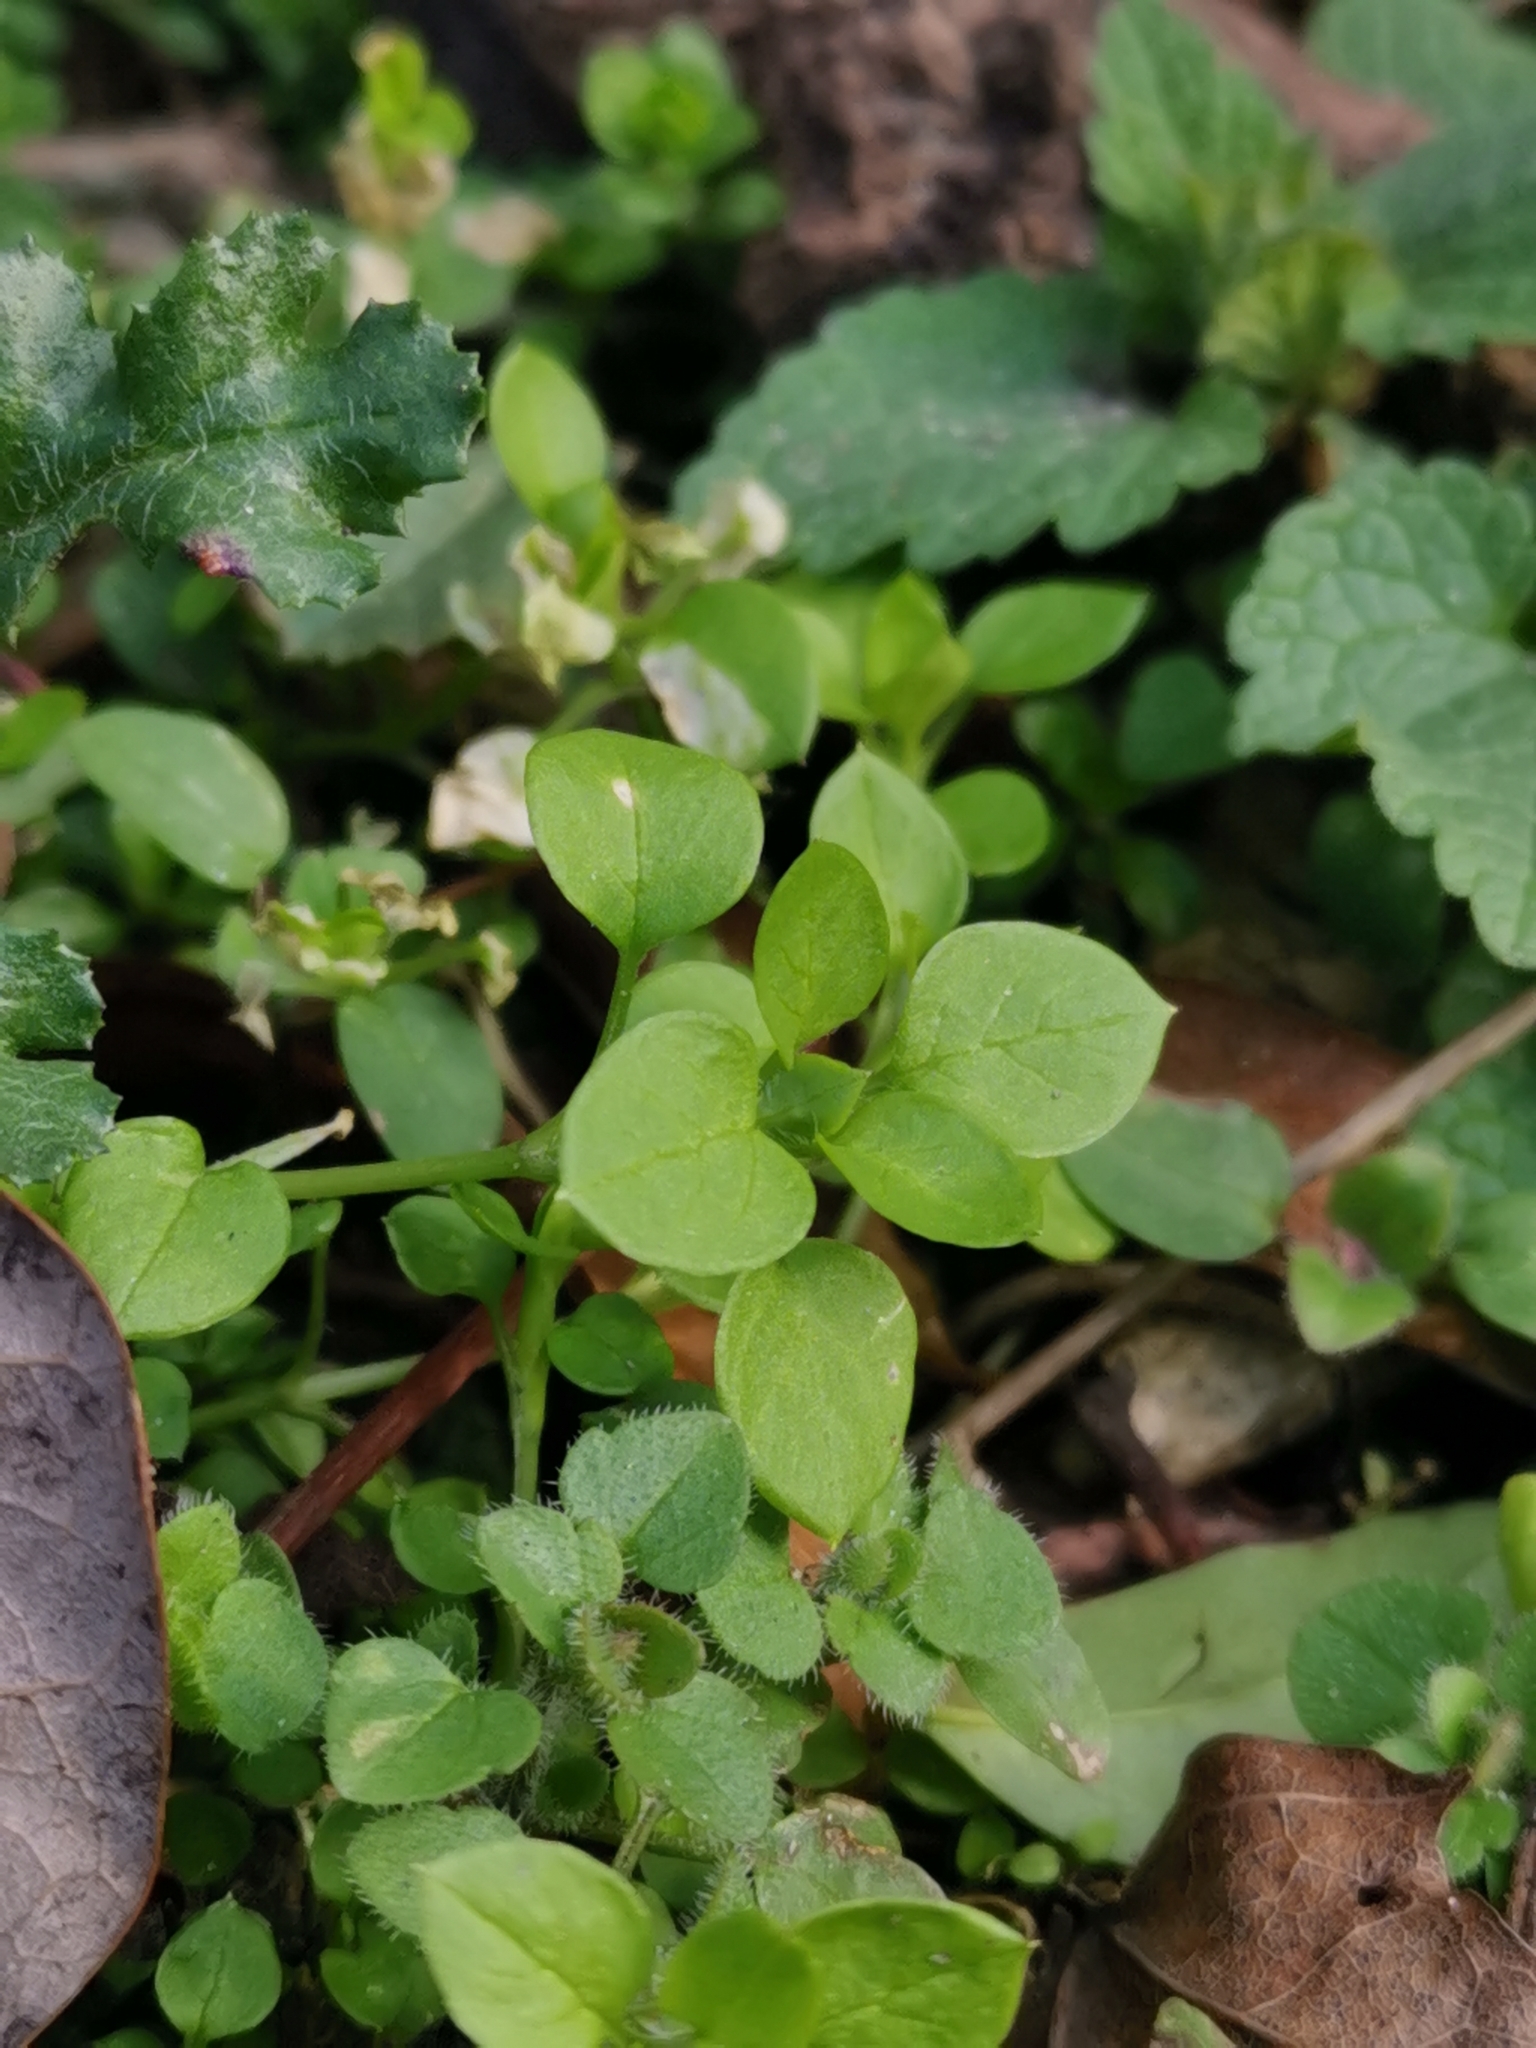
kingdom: Plantae
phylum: Tracheophyta
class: Magnoliopsida
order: Caryophyllales
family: Caryophyllaceae
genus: Stellaria
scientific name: Stellaria media
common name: Common chickweed
